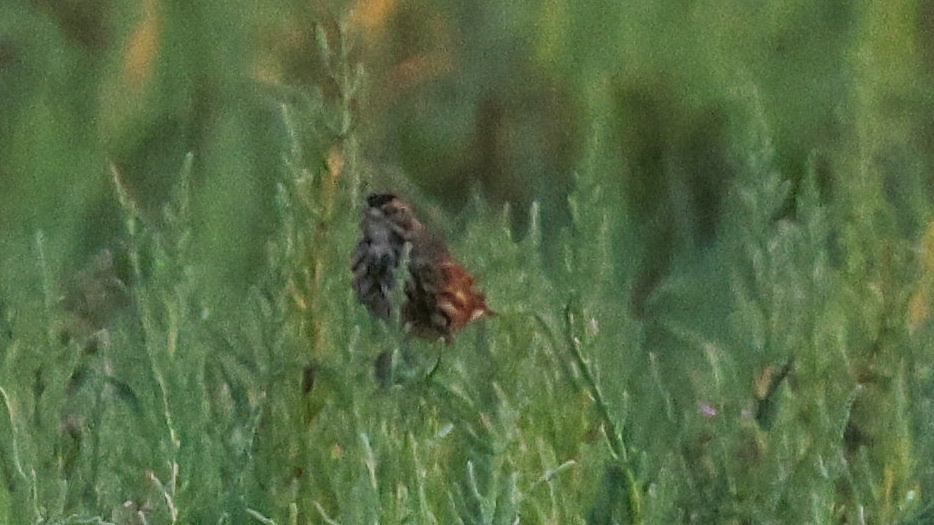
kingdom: Animalia
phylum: Chordata
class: Aves
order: Passeriformes
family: Passerellidae
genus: Melospiza
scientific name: Melospiza melodia
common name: Song sparrow
